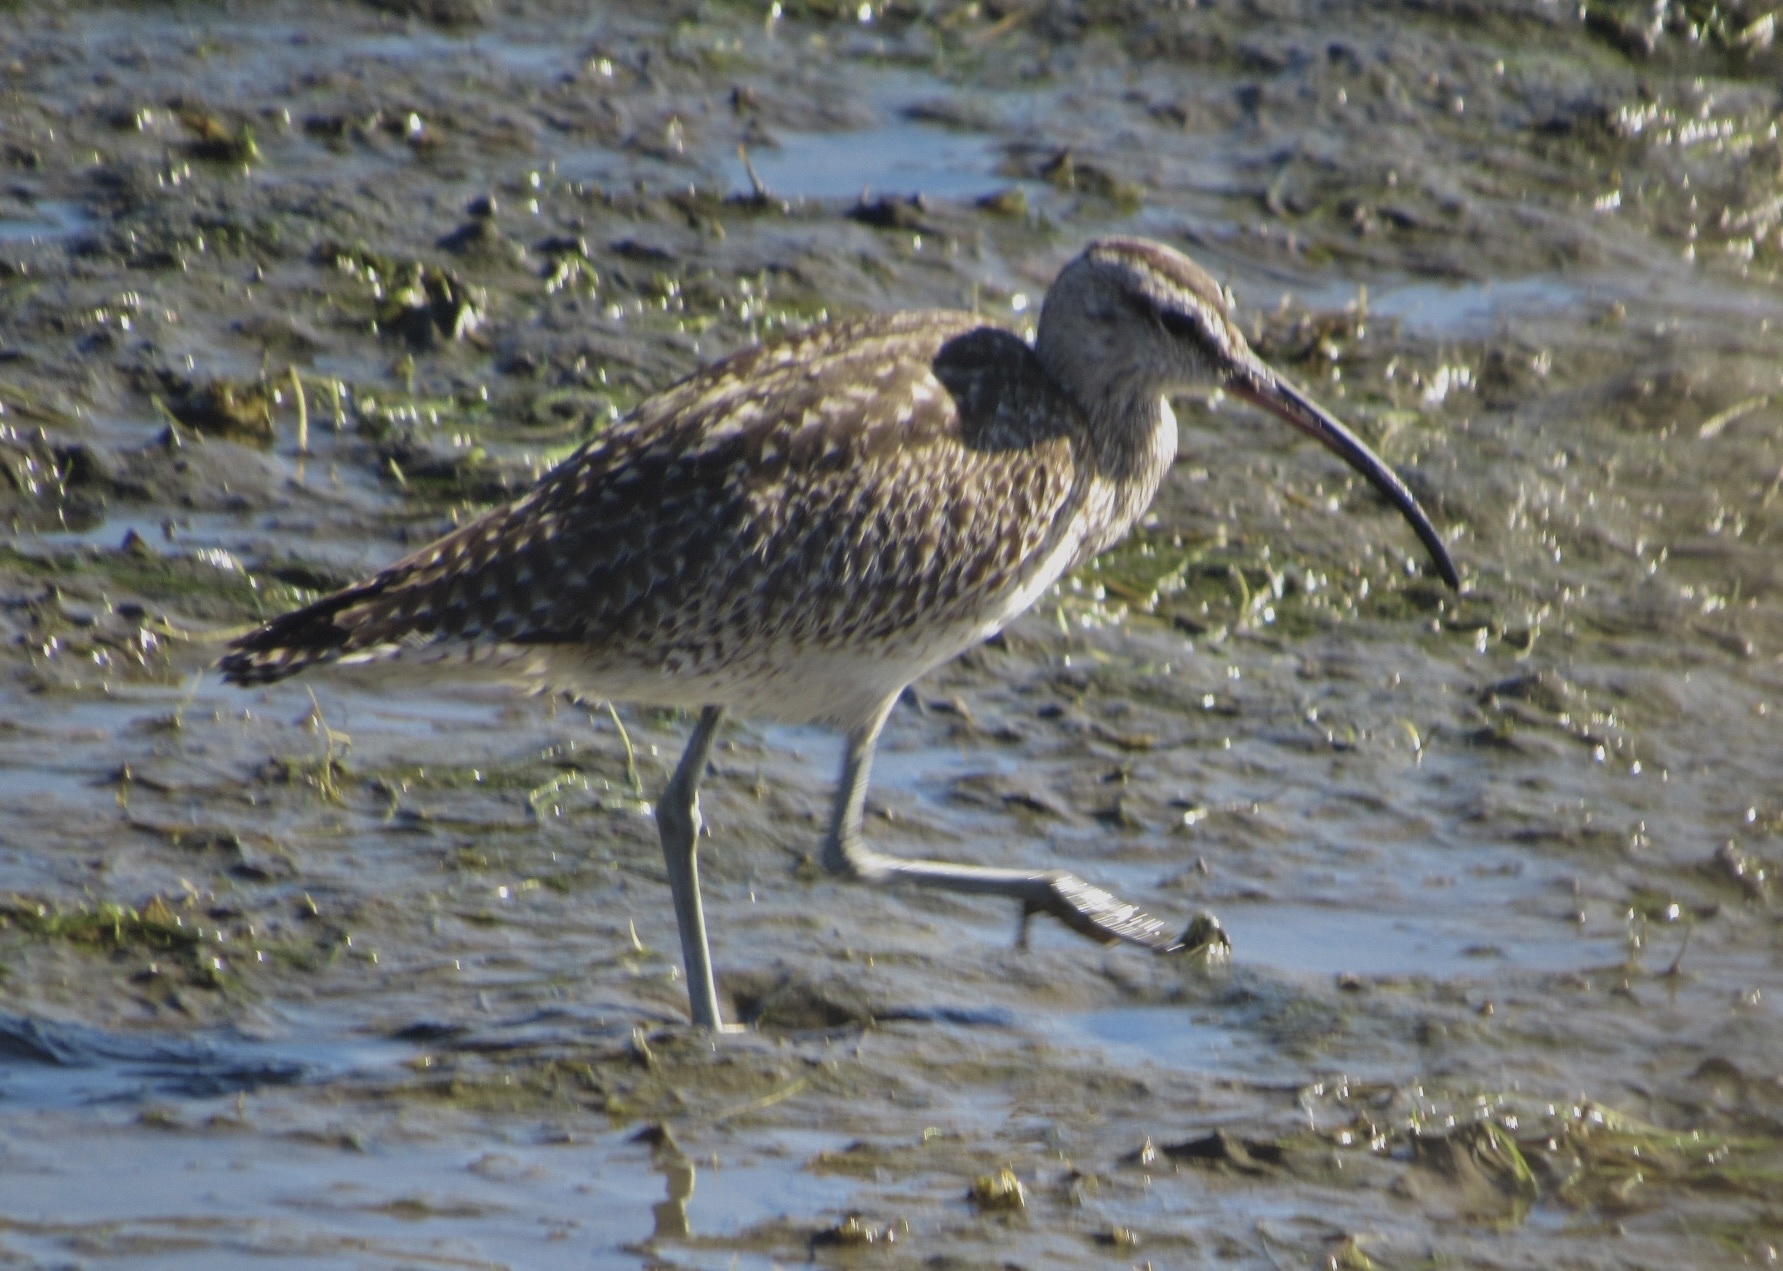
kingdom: Animalia
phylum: Chordata
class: Aves
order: Charadriiformes
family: Scolopacidae
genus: Numenius
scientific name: Numenius phaeopus
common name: Whimbrel
